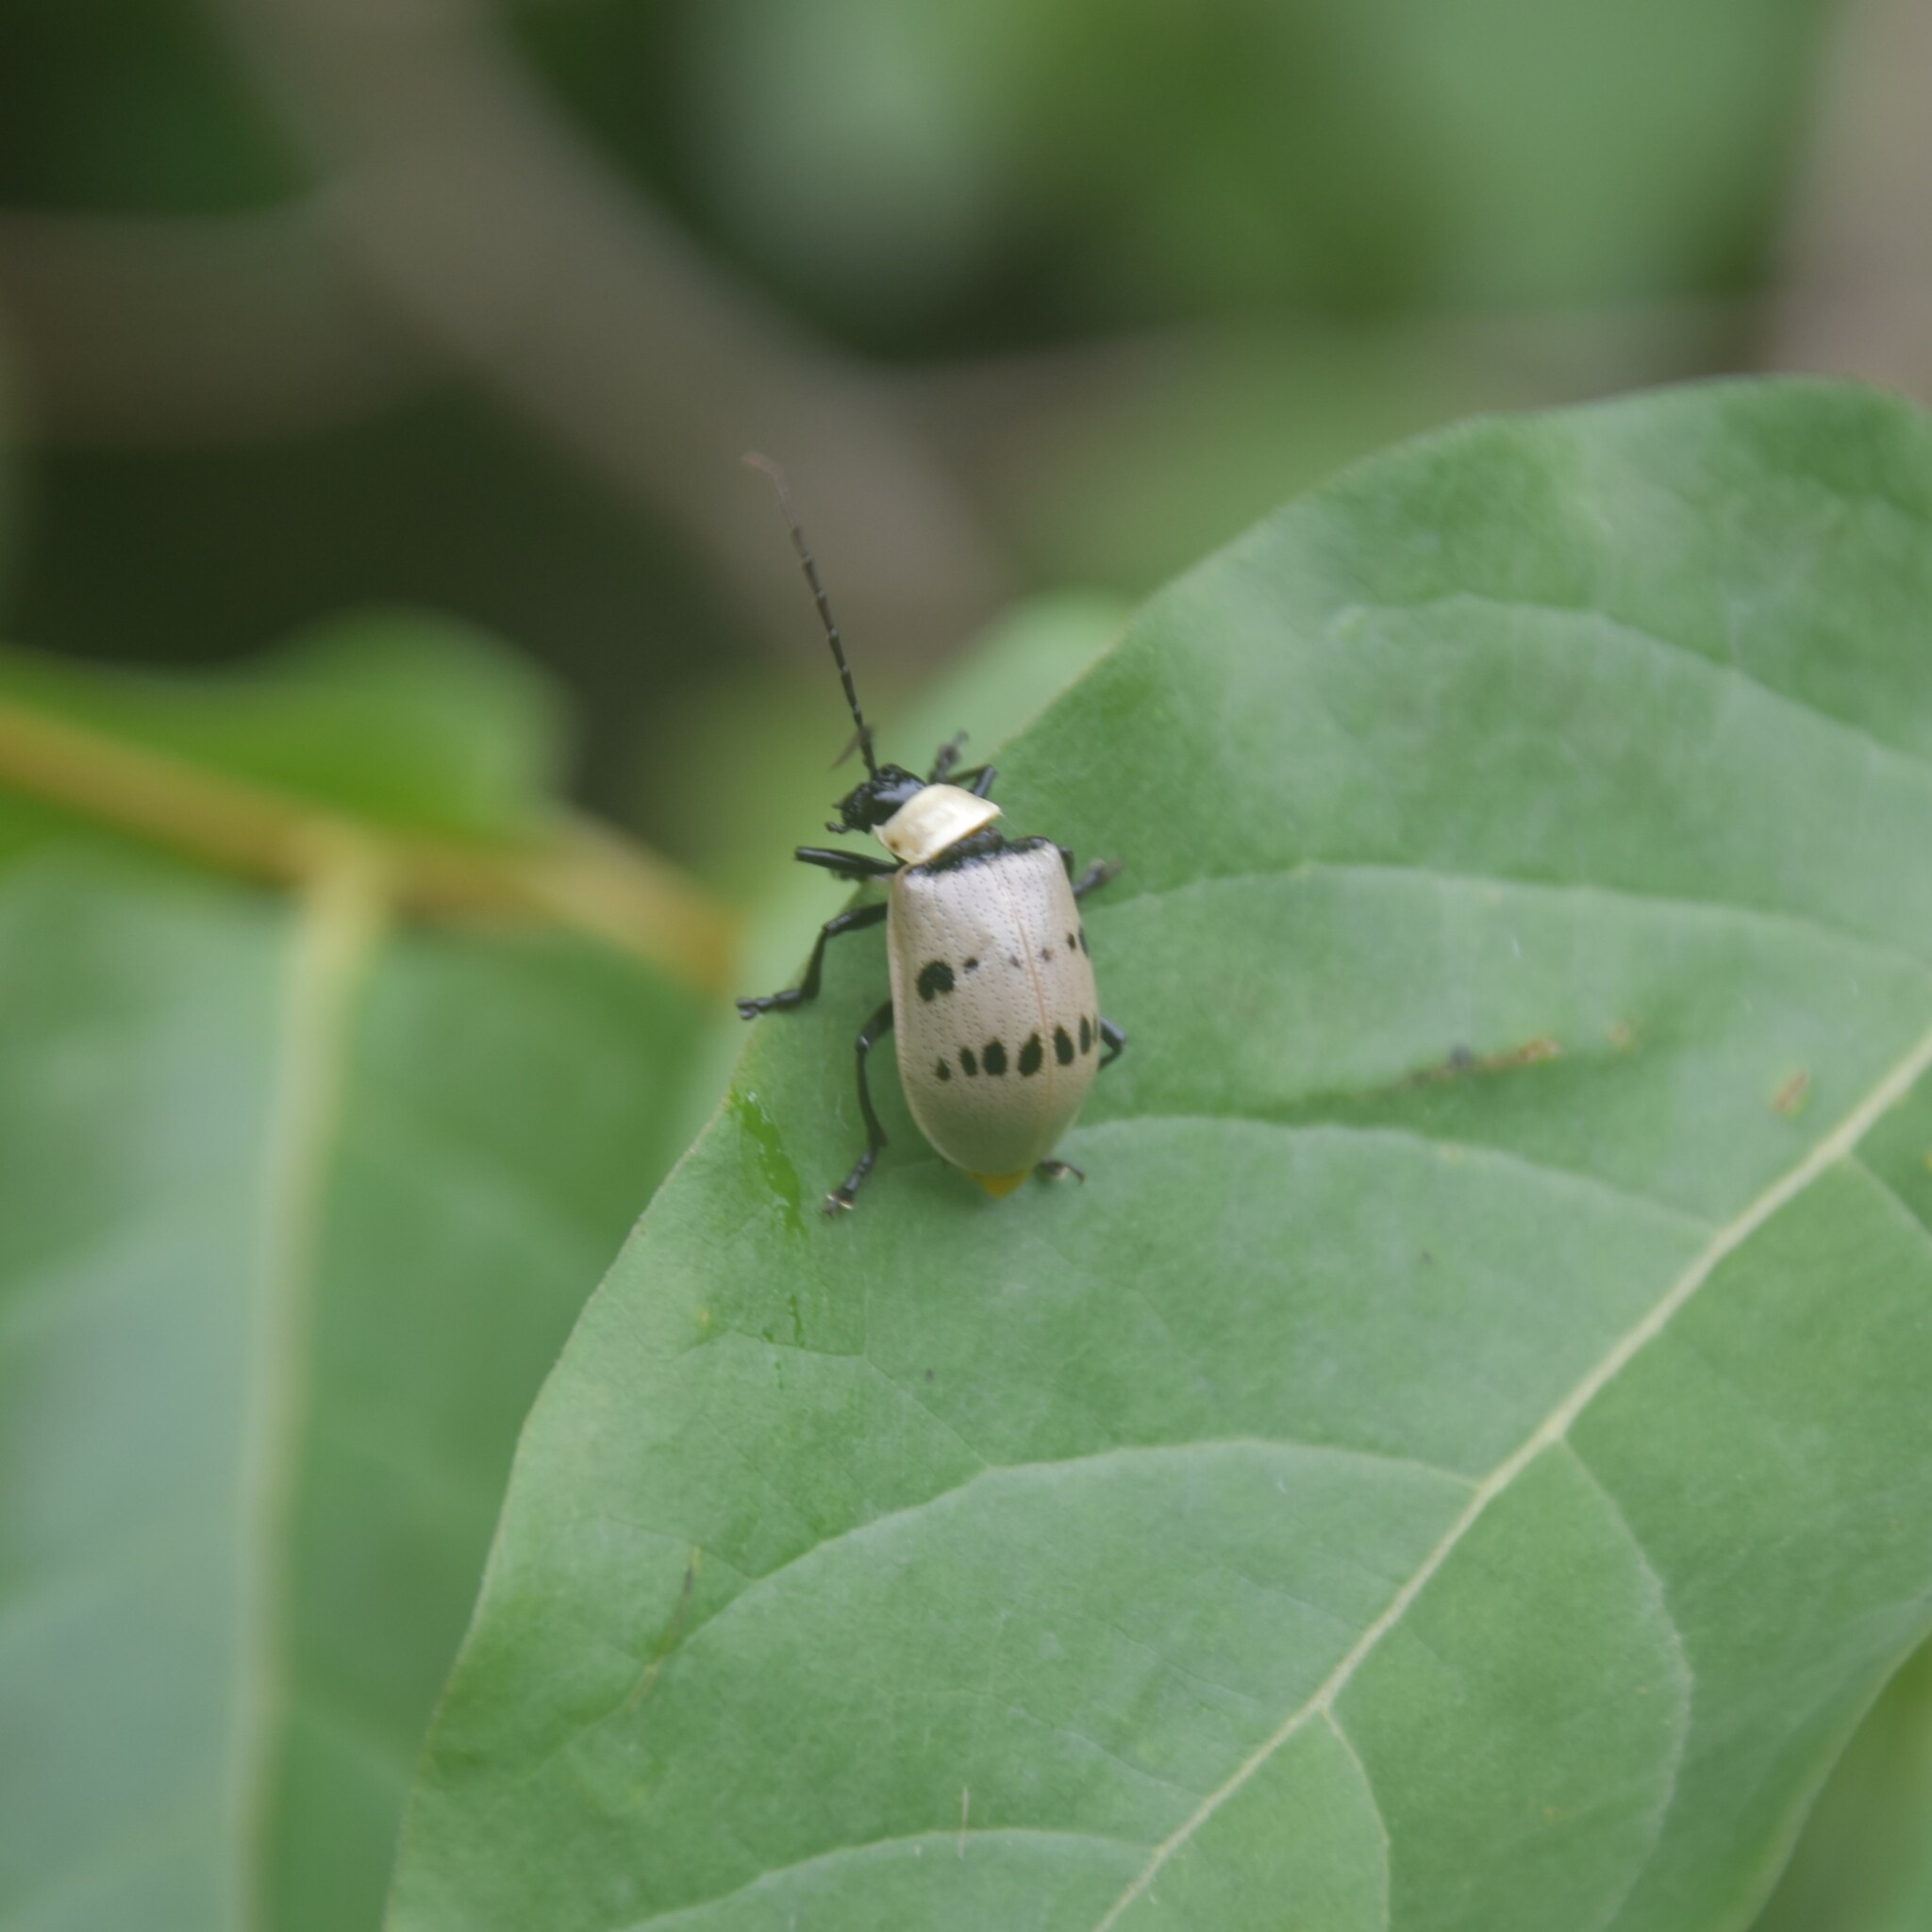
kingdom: Animalia
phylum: Arthropoda
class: Insecta
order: Coleoptera
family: Chrysomelidae
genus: Meristata
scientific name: Meristata
